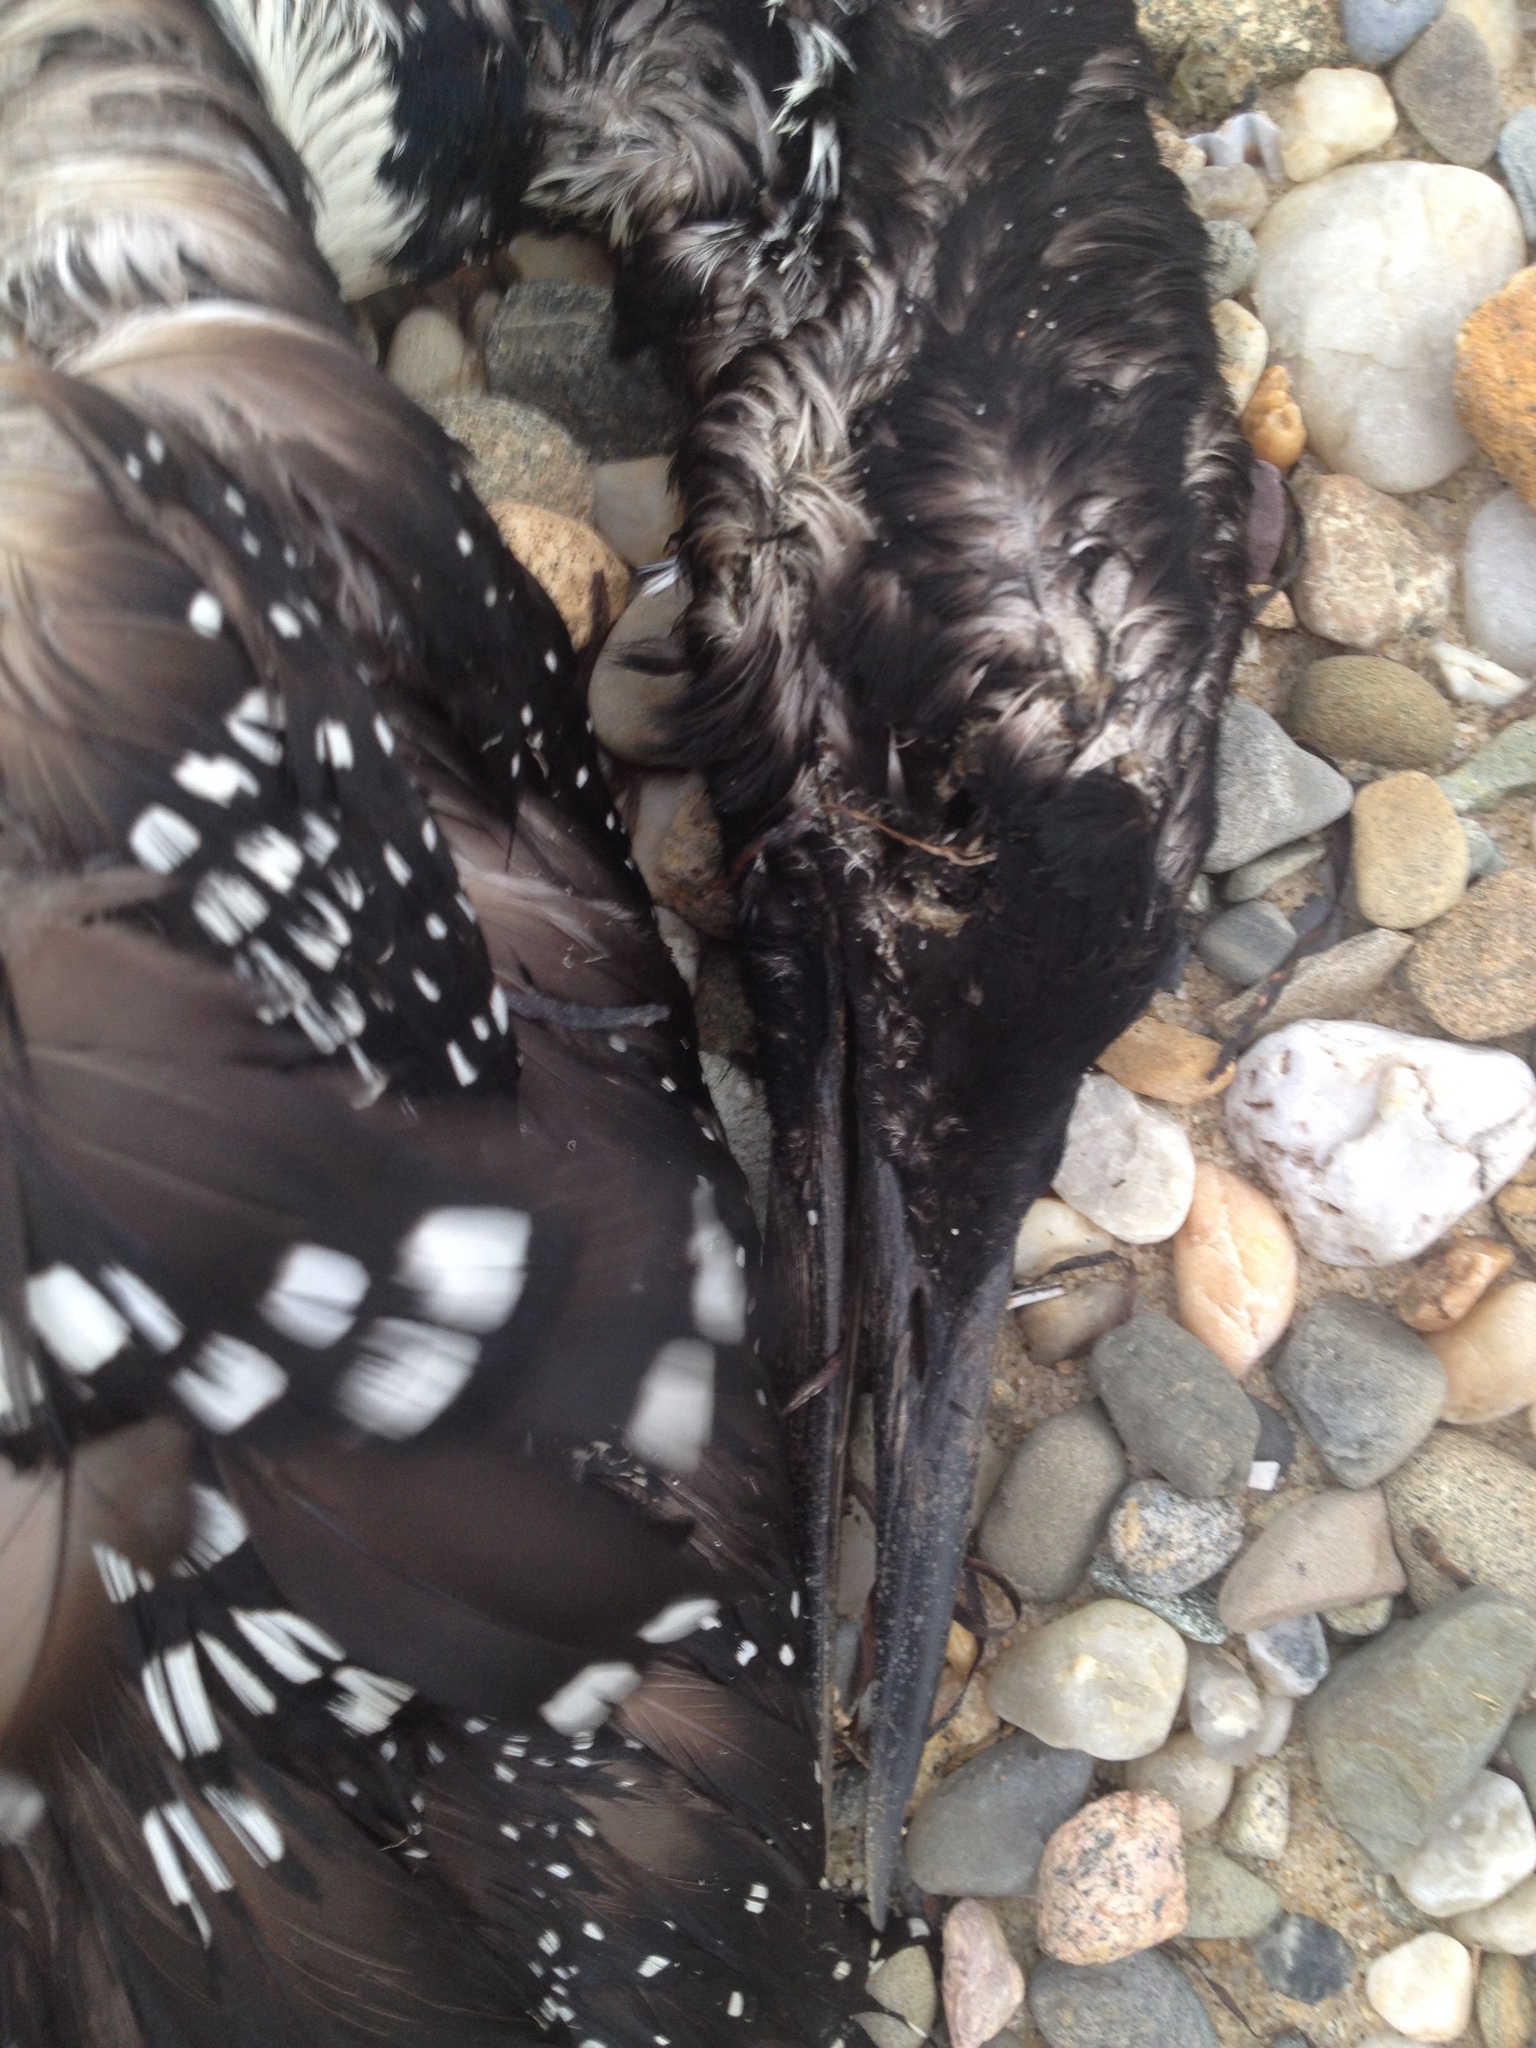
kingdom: Animalia
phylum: Chordata
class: Aves
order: Gaviiformes
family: Gaviidae
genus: Gavia
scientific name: Gavia immer
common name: Common loon
